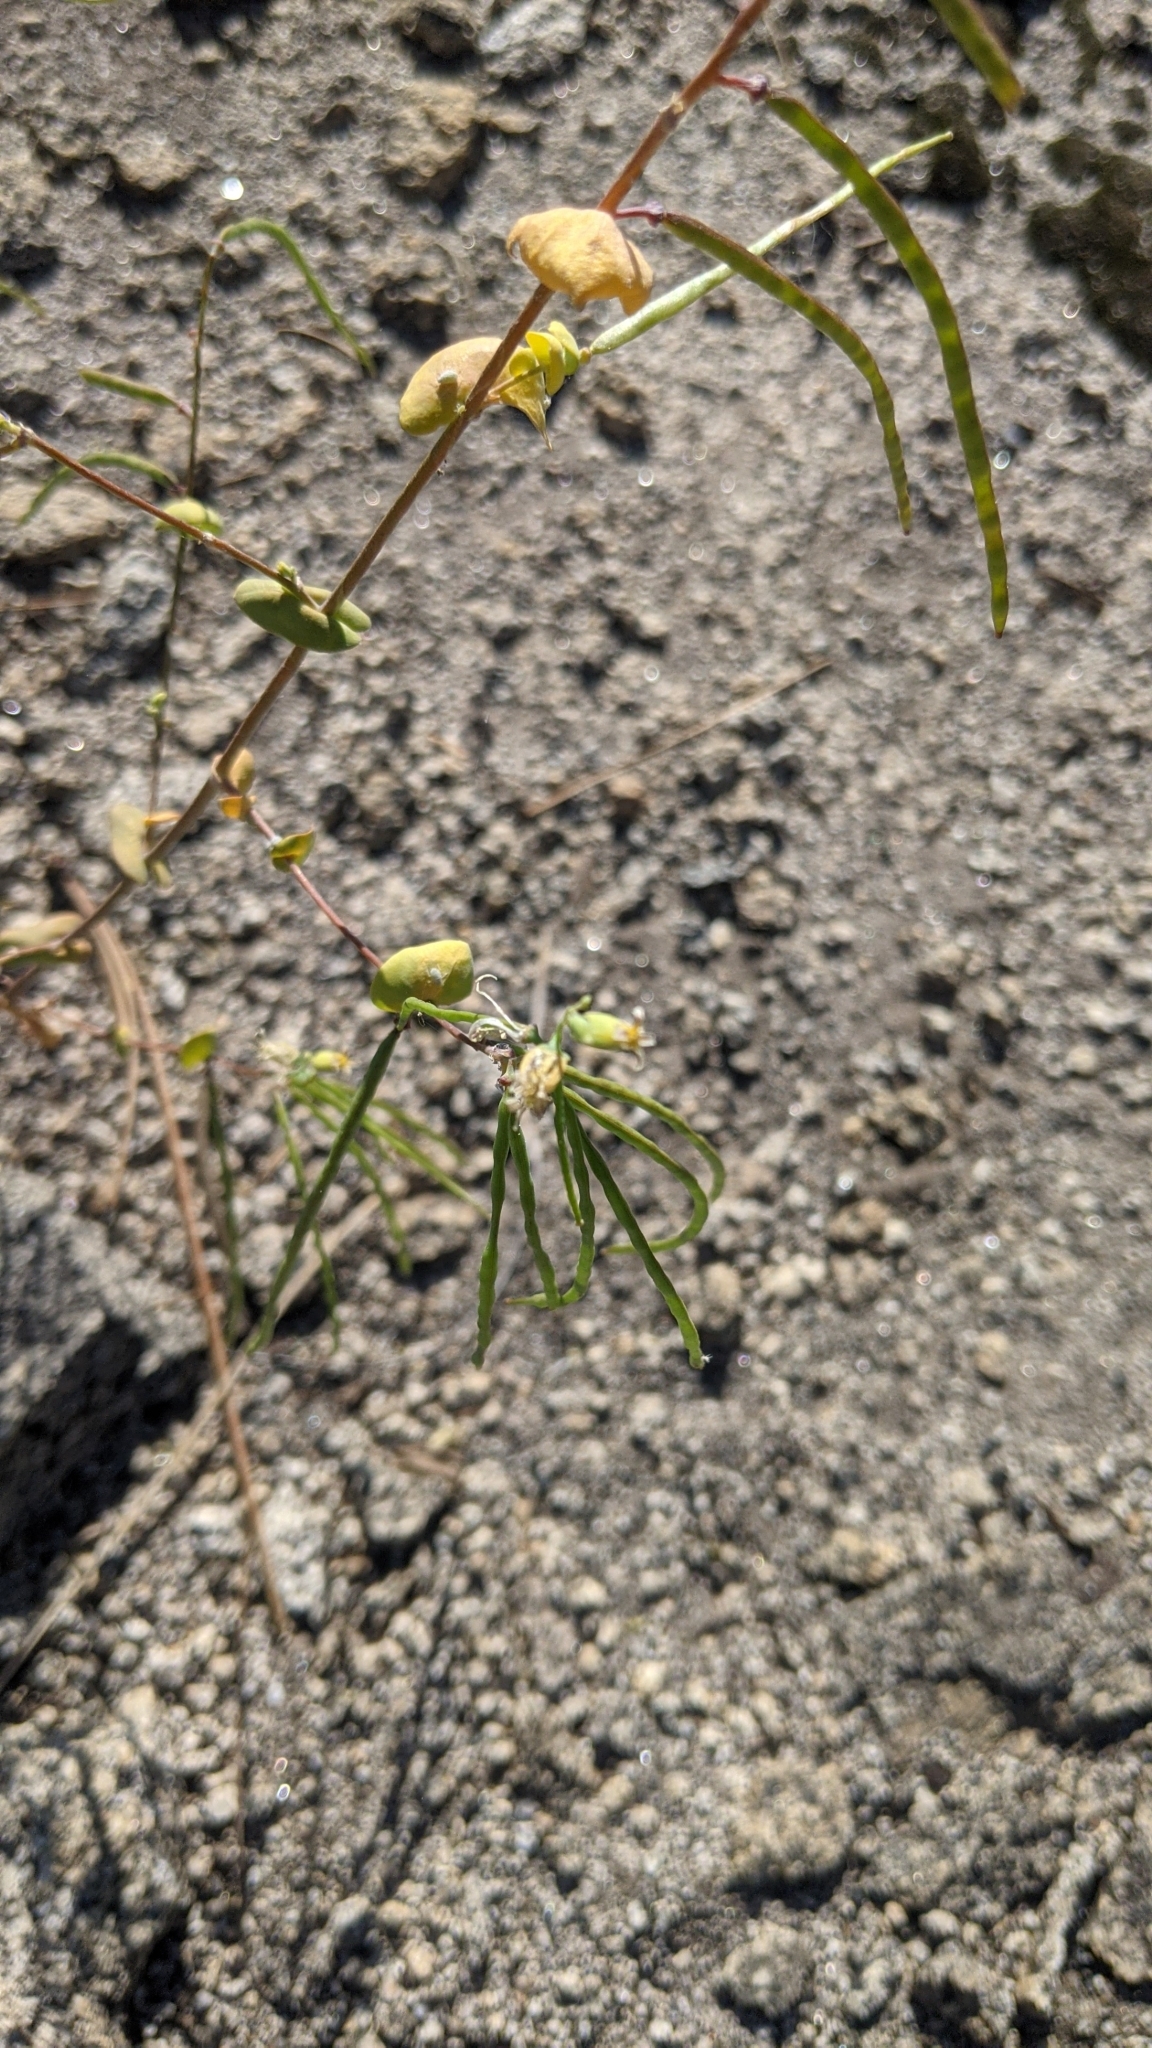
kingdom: Plantae
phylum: Tracheophyta
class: Magnoliopsida
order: Brassicales
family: Brassicaceae
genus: Streptanthus
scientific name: Streptanthus tortuosus
